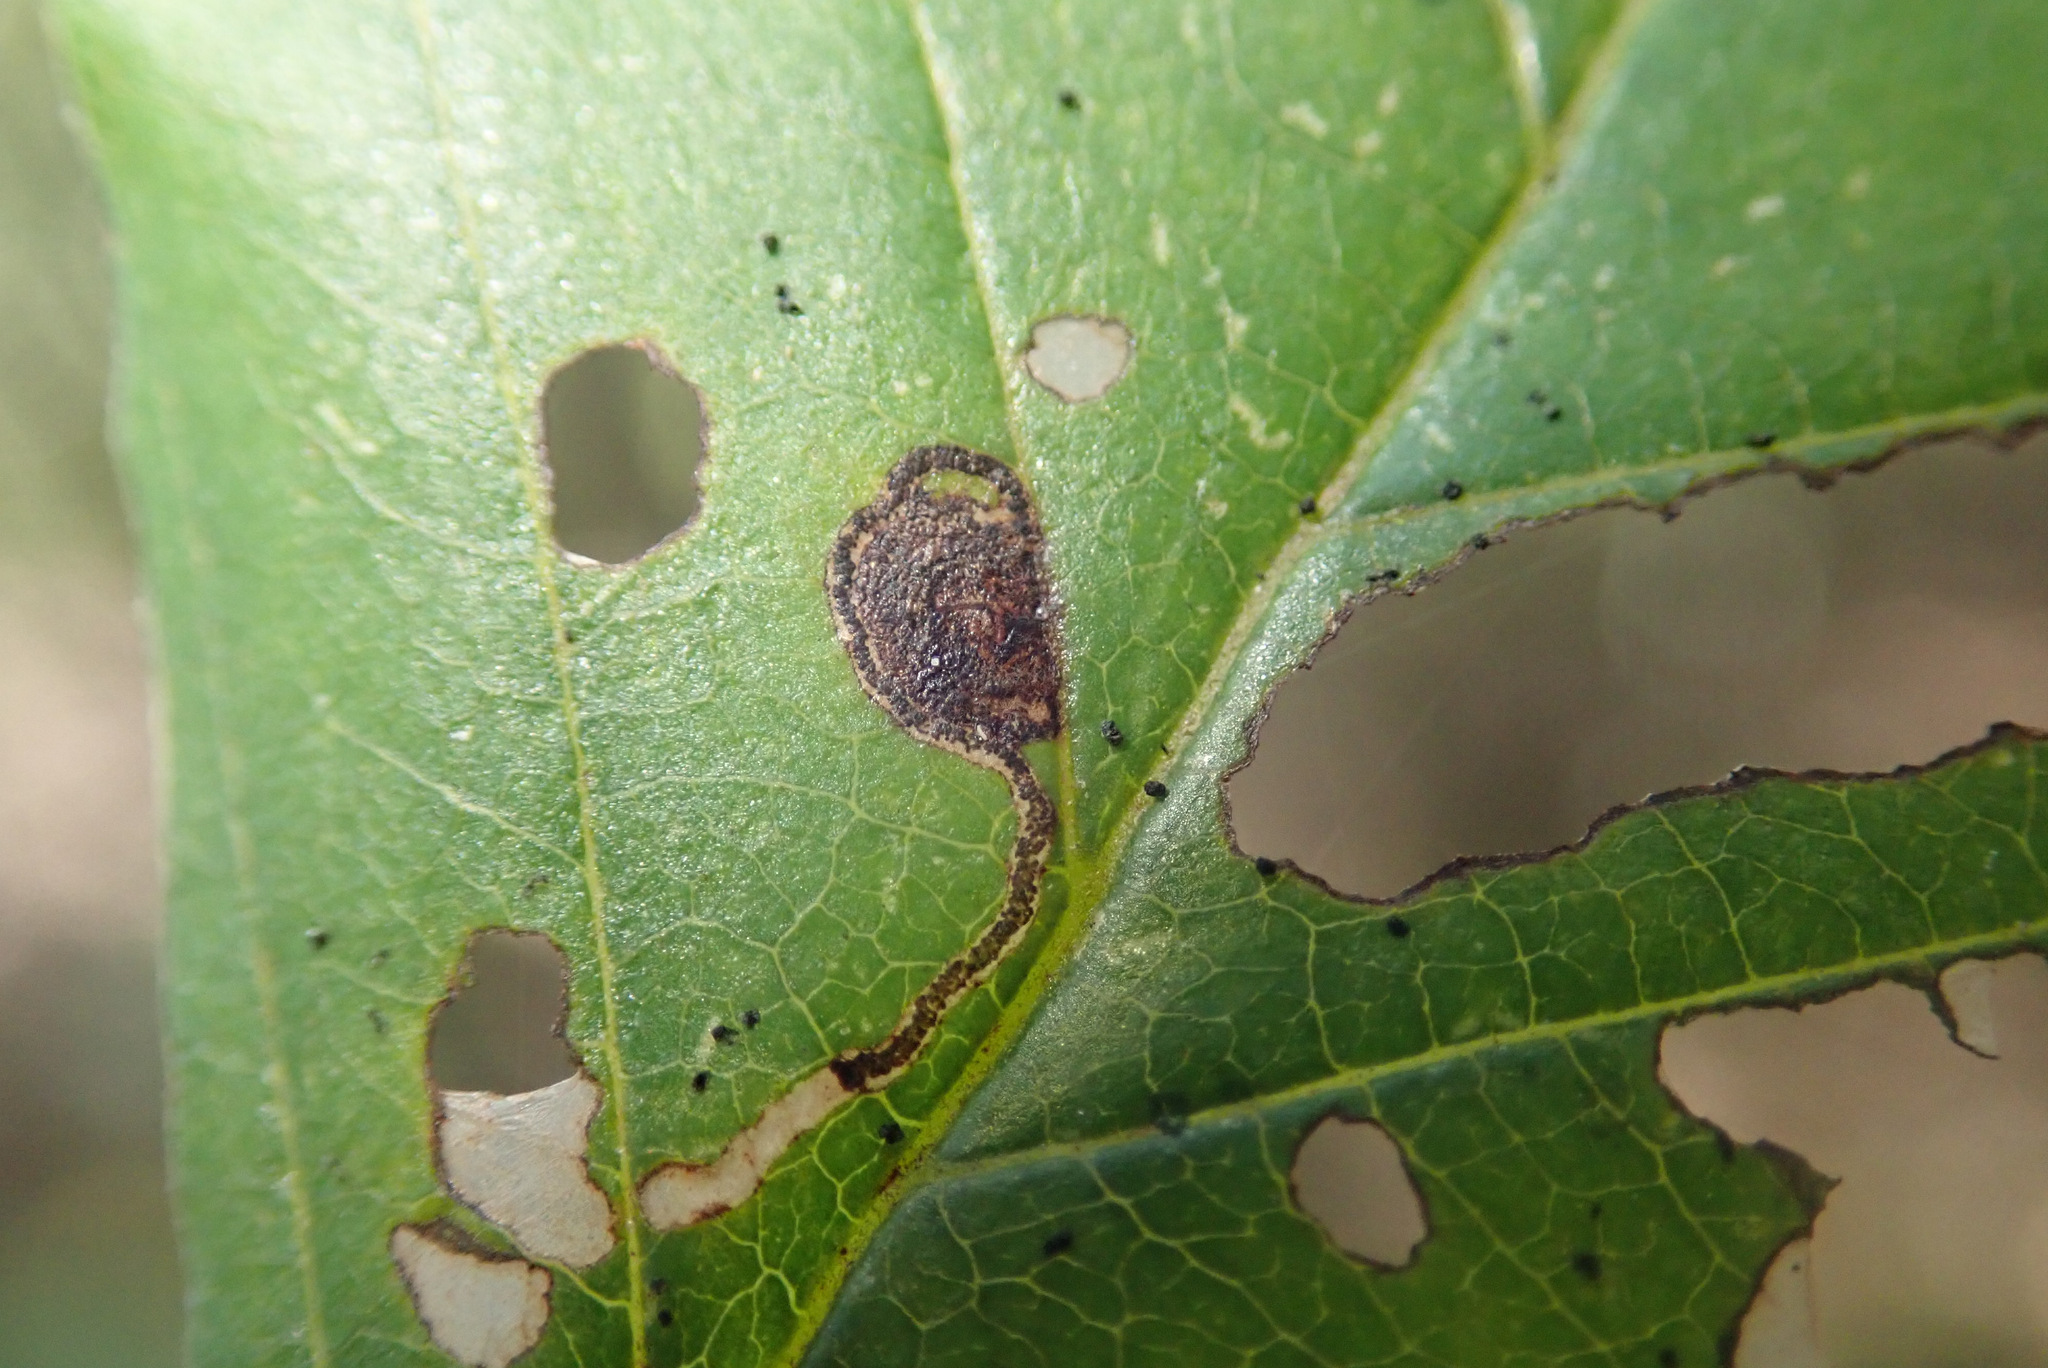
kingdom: Animalia
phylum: Arthropoda
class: Insecta
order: Lepidoptera
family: Bucculatricidae
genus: Bucculatrix
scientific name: Bucculatrix frangutella
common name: Buckthorn bent-wing
